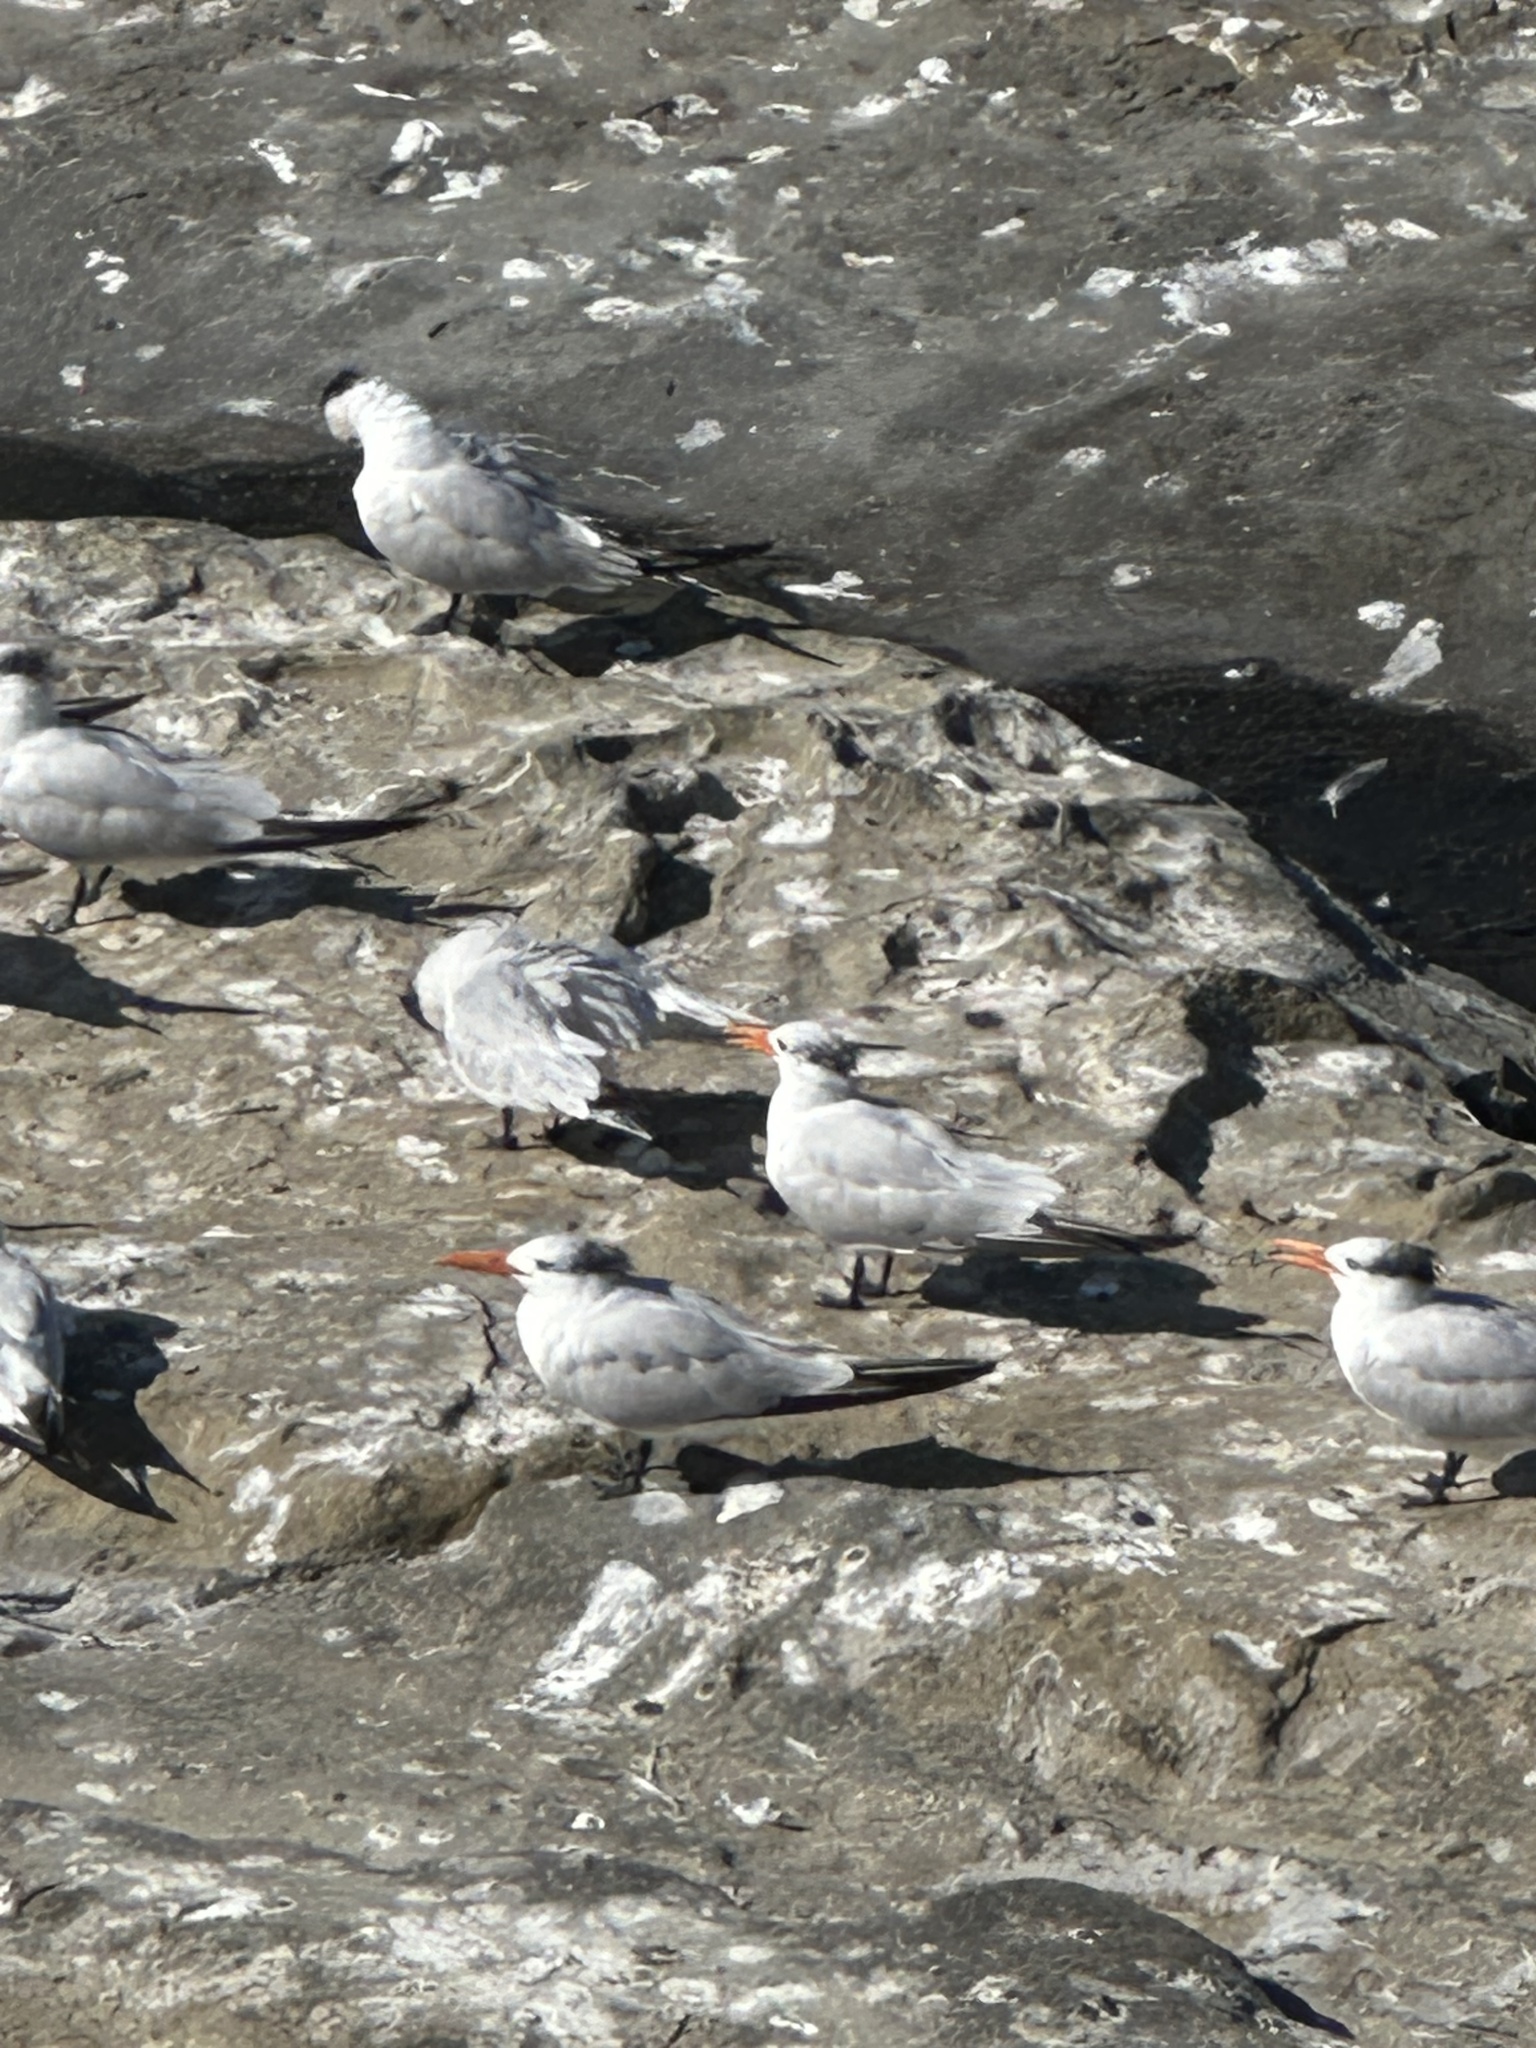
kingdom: Animalia
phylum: Chordata
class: Aves
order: Charadriiformes
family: Laridae
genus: Thalasseus
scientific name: Thalasseus maximus
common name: Royal tern
